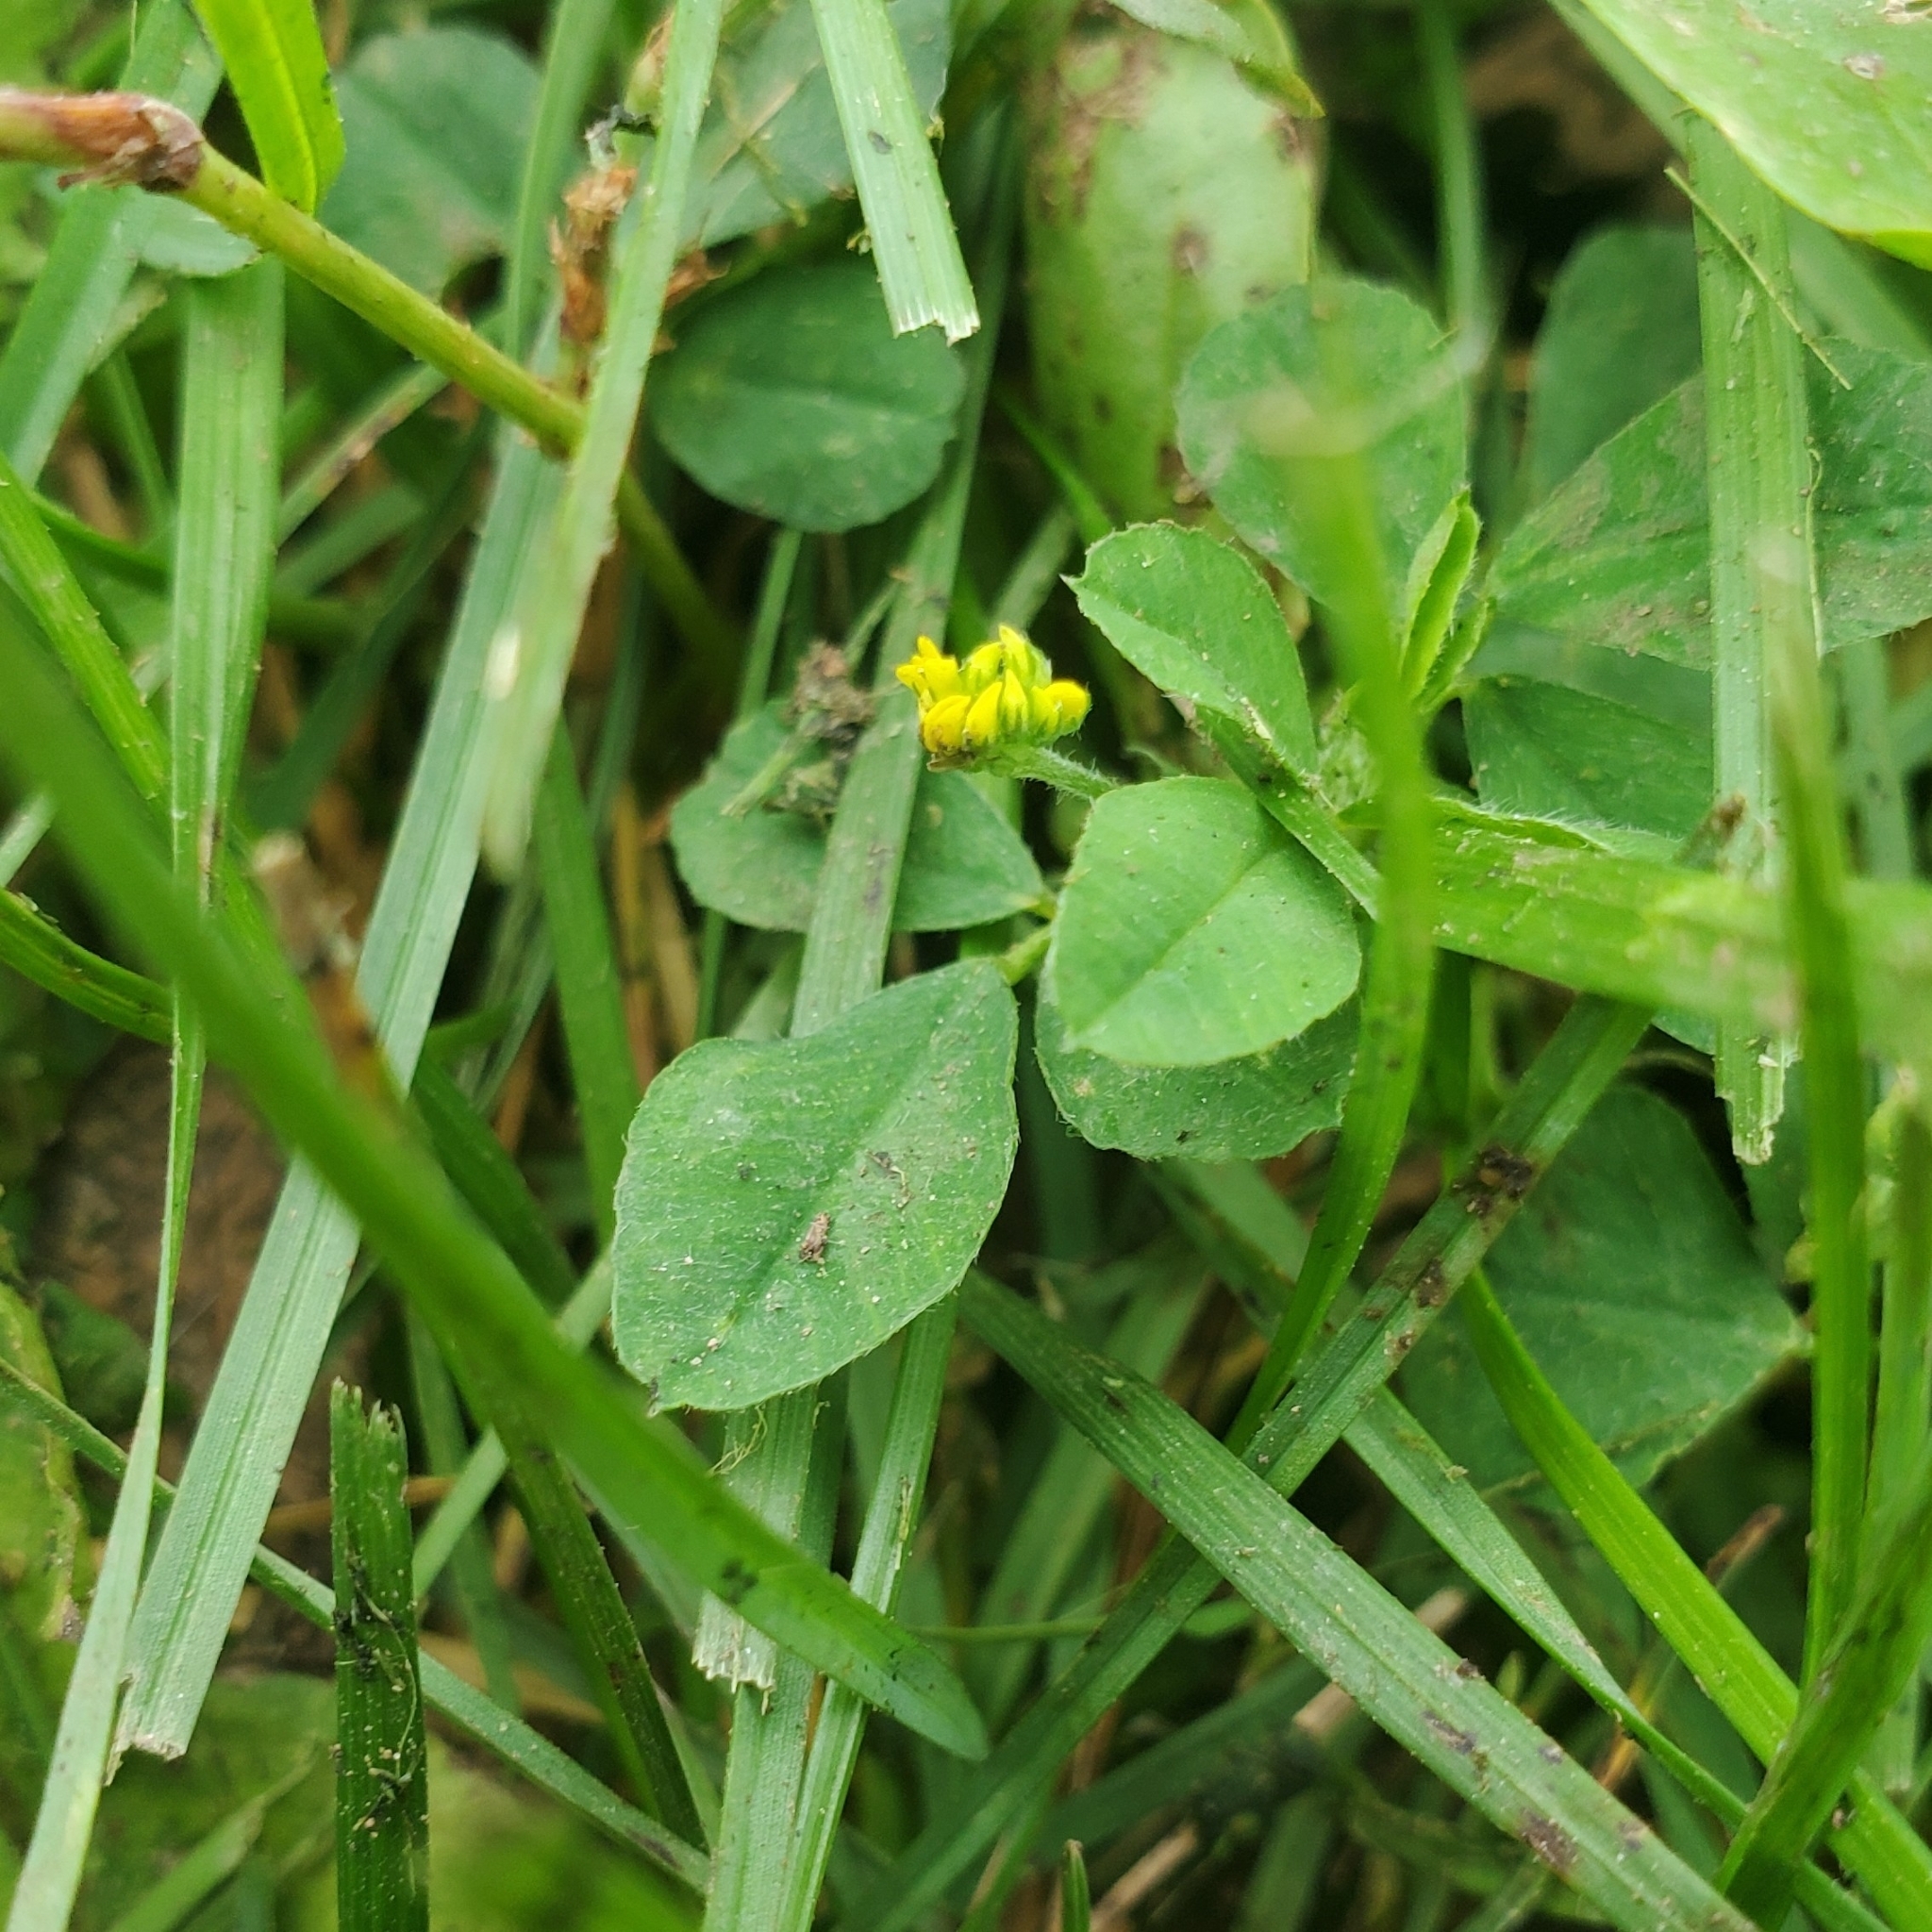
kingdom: Plantae
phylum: Tracheophyta
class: Magnoliopsida
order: Fabales
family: Fabaceae
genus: Medicago
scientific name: Medicago lupulina
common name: Black medick
